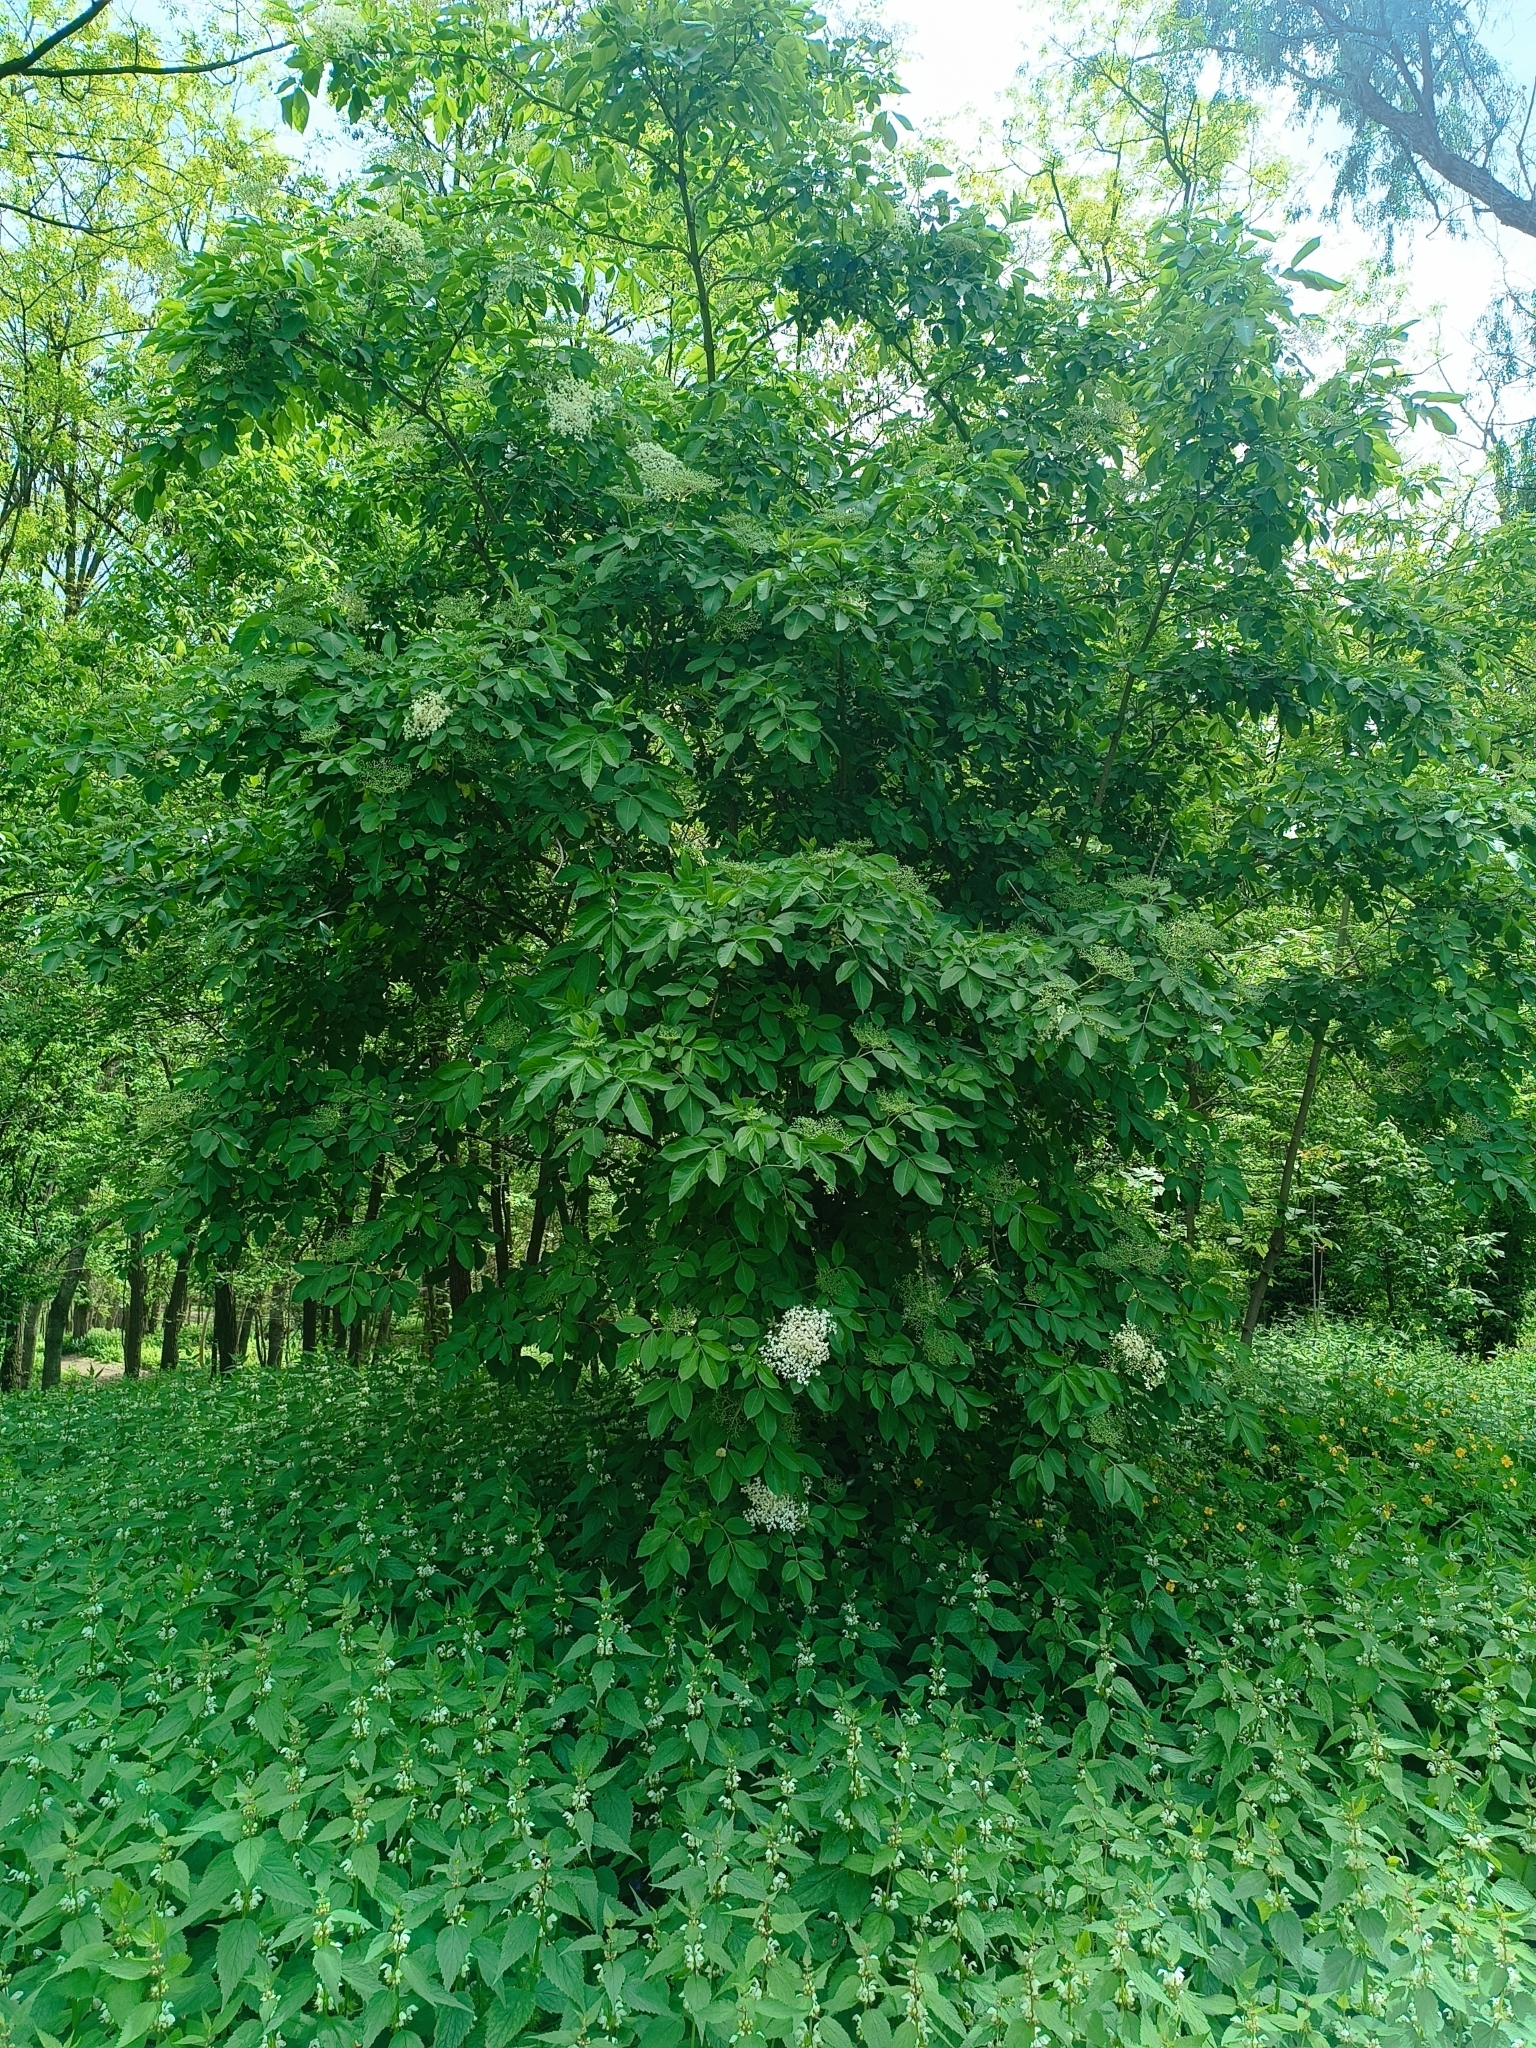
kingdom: Plantae
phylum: Tracheophyta
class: Magnoliopsida
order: Dipsacales
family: Viburnaceae
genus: Sambucus
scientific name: Sambucus nigra
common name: Elder
